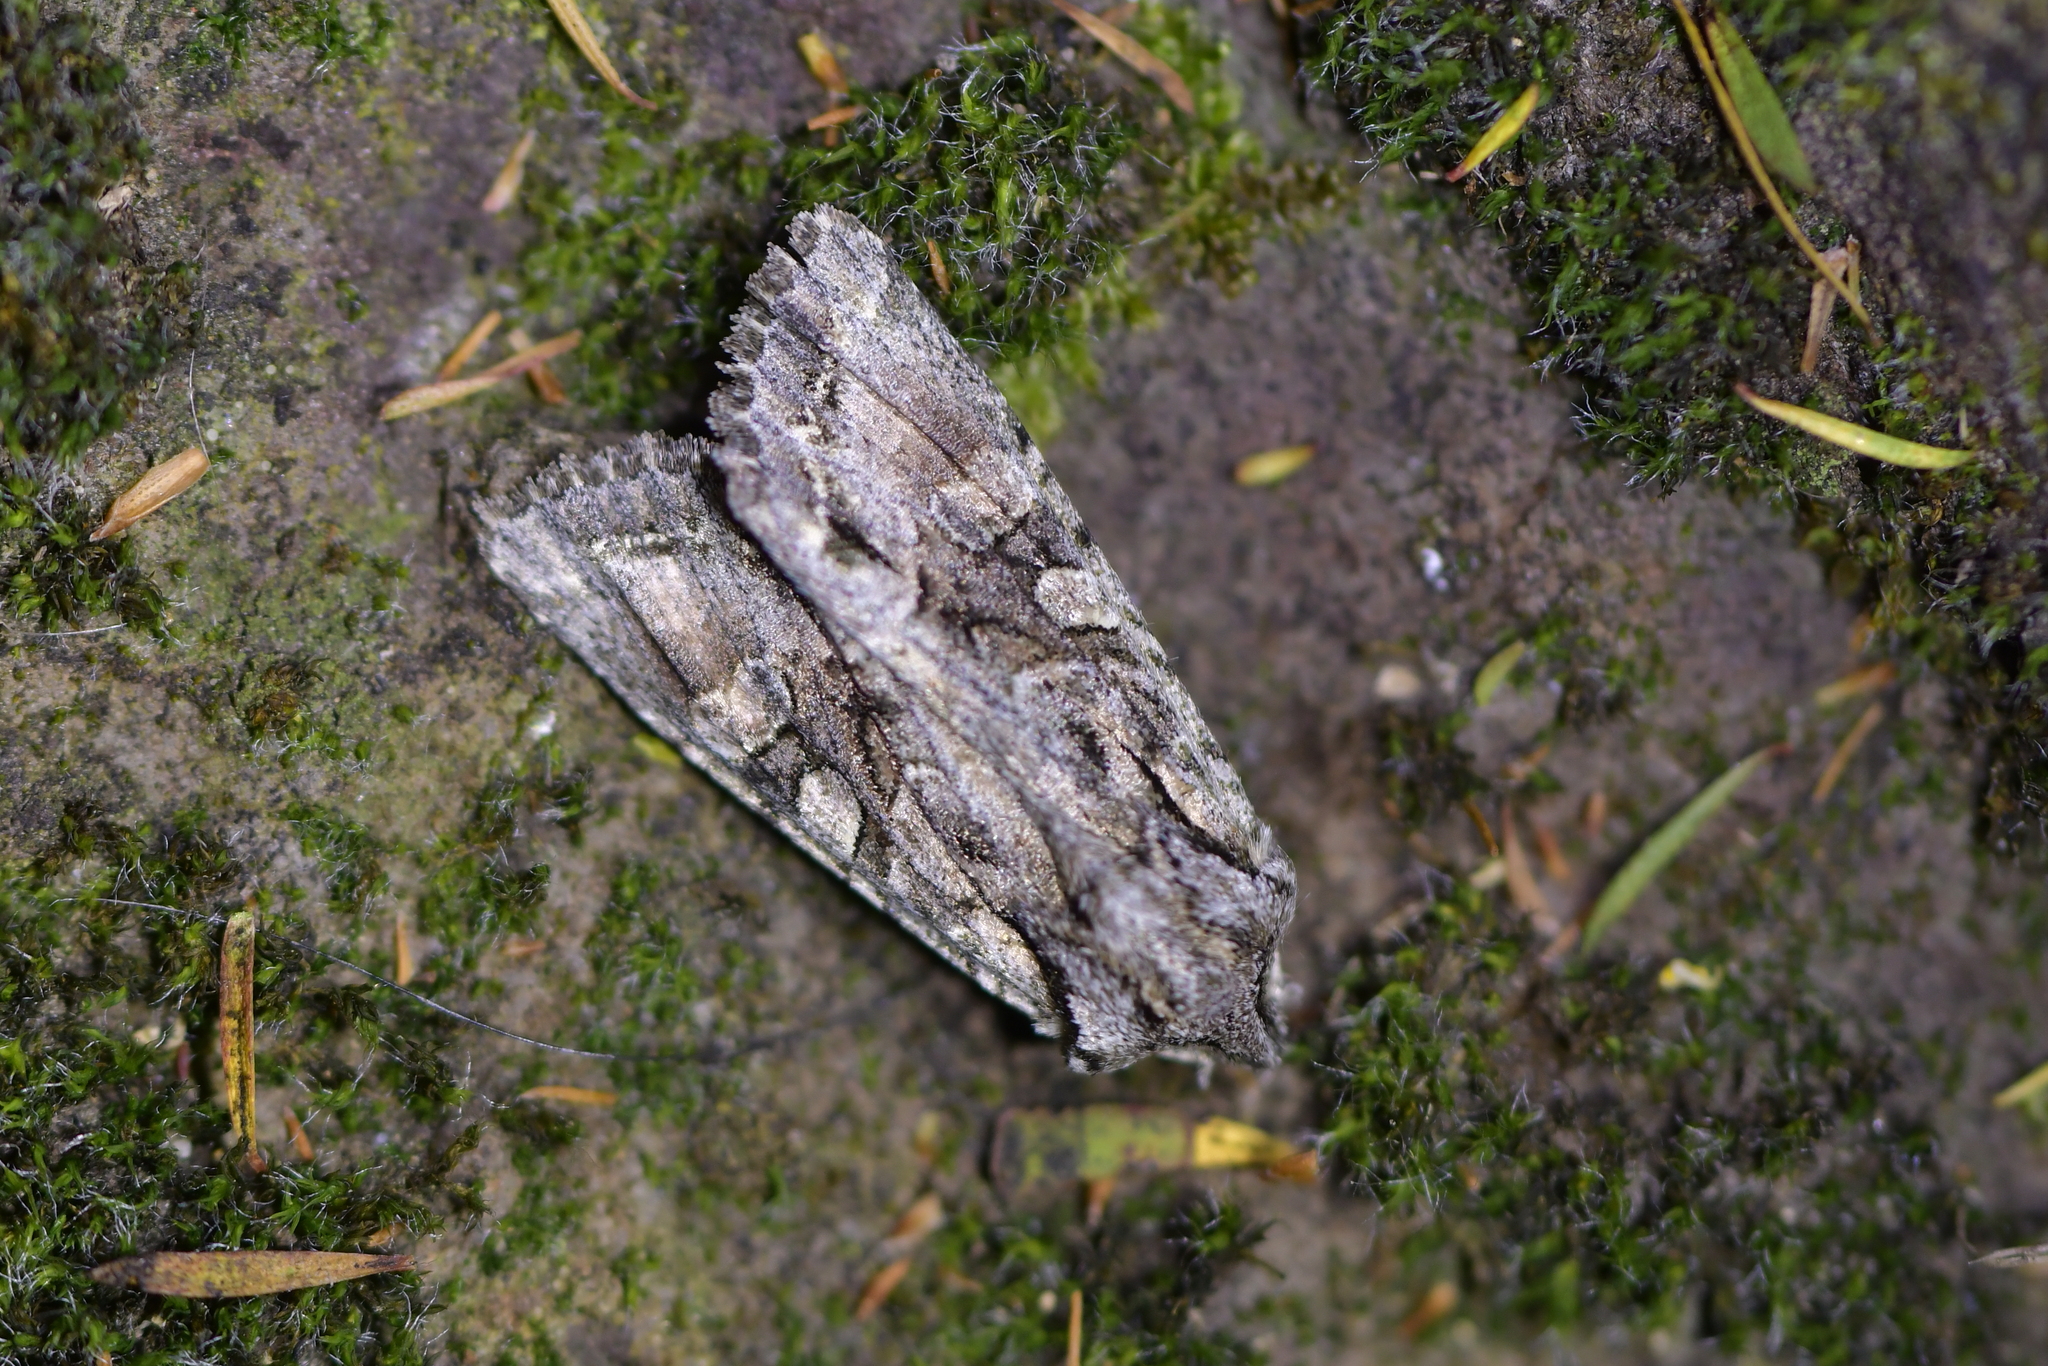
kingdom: Animalia
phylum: Arthropoda
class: Insecta
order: Lepidoptera
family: Noctuidae
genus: Ichneutica
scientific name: Ichneutica mutans
